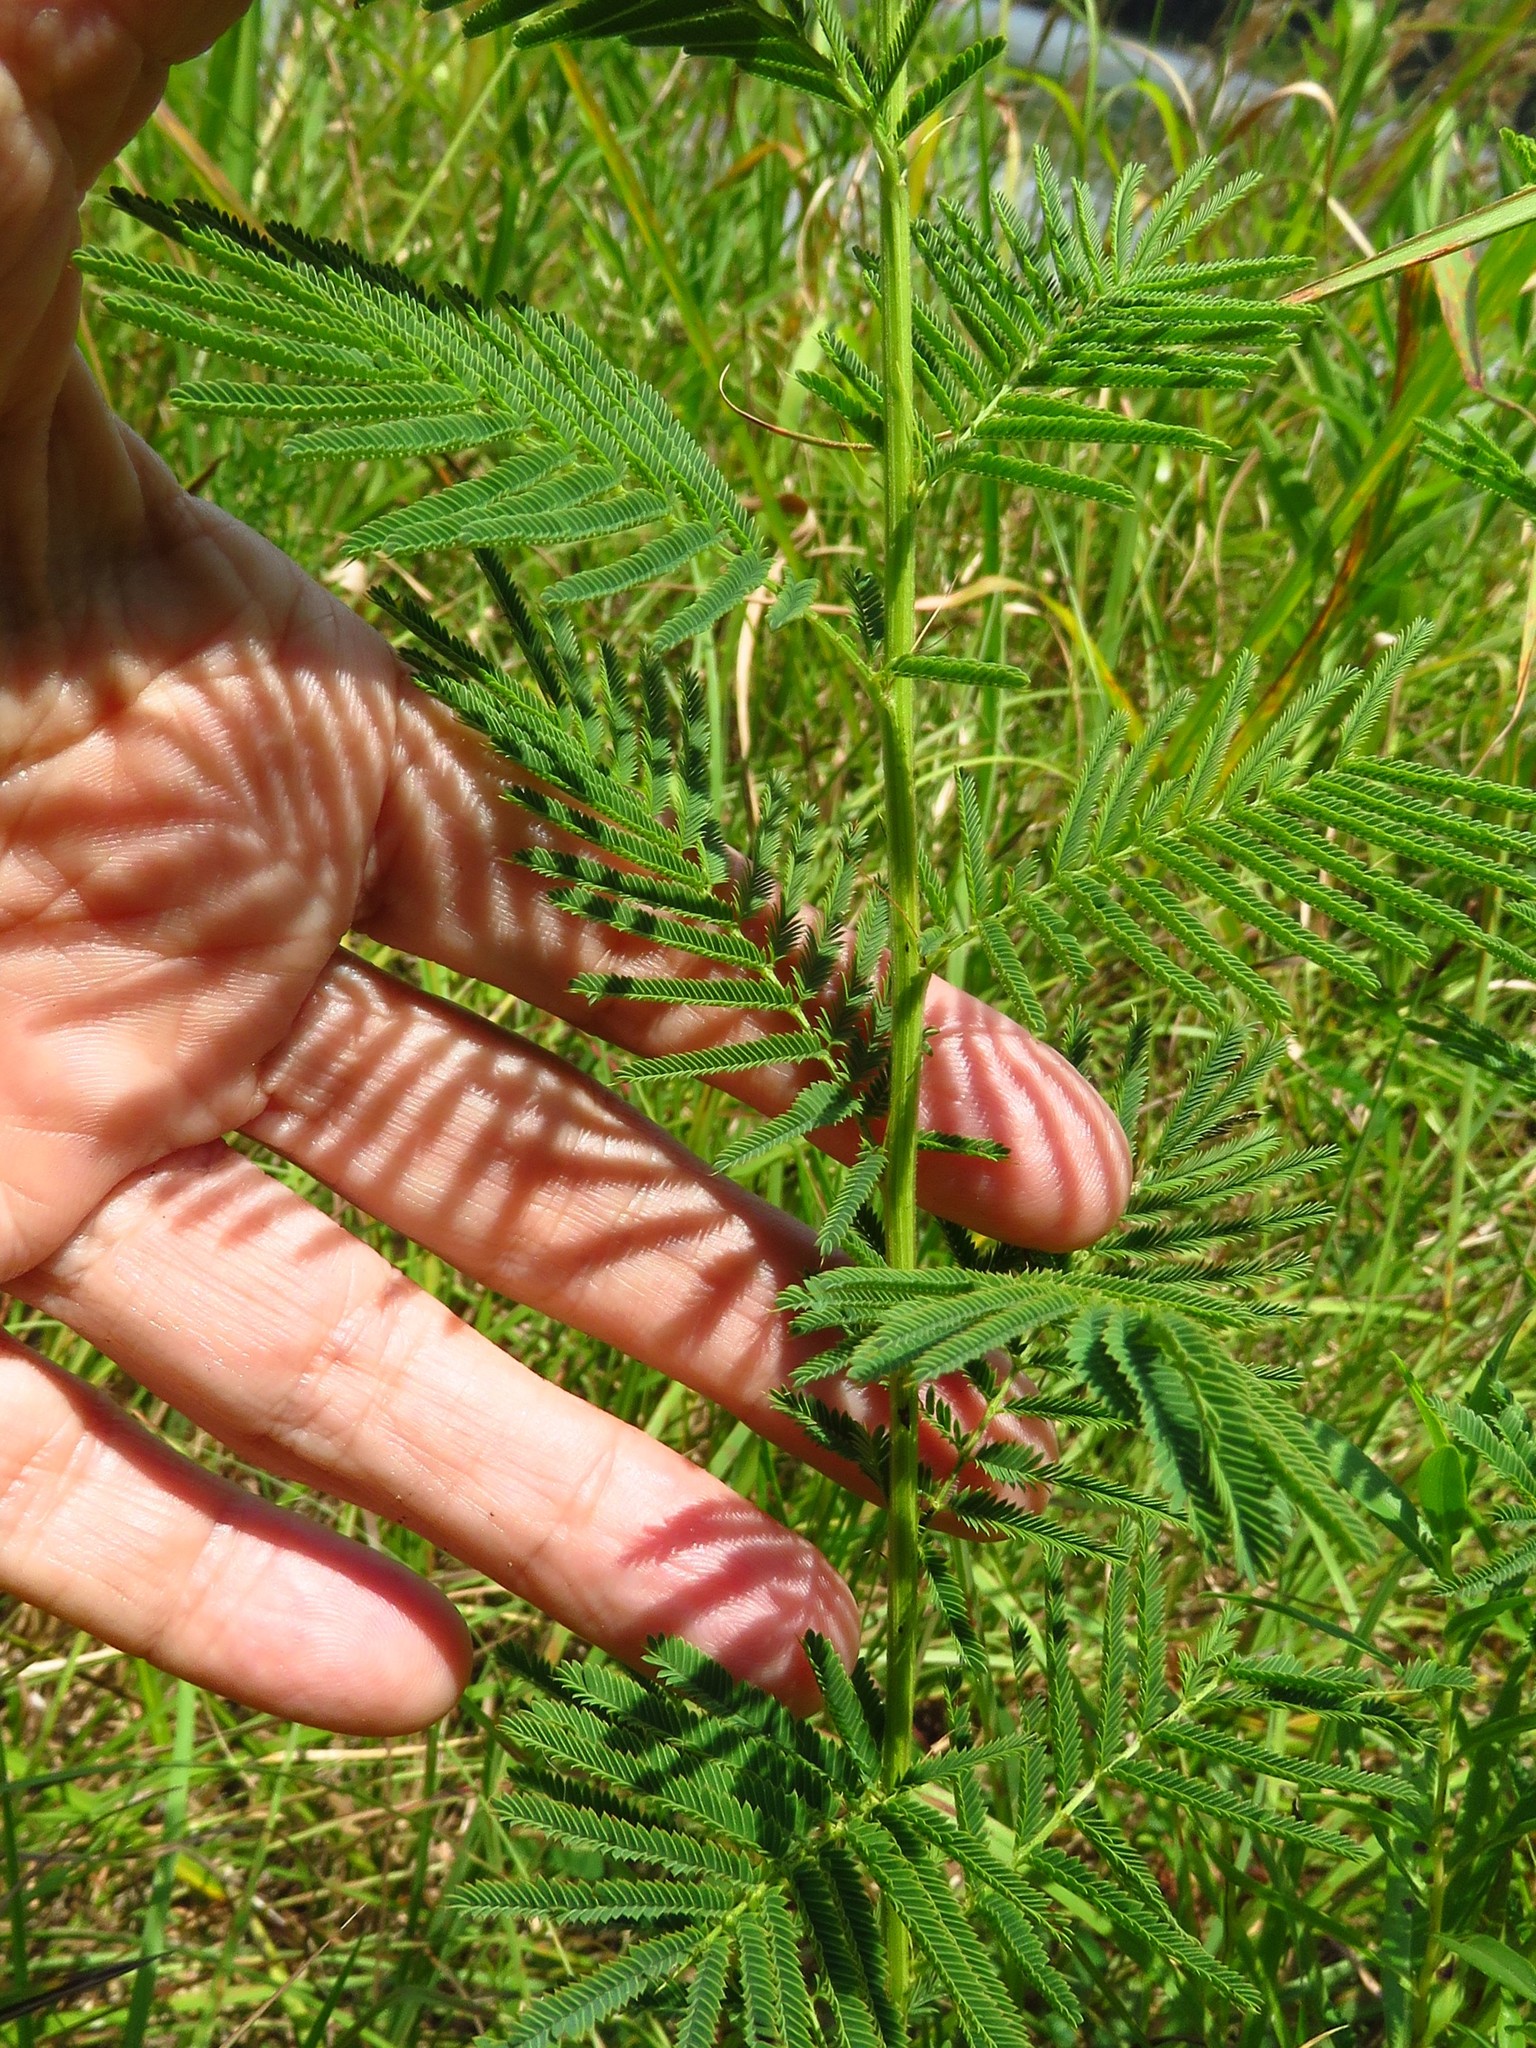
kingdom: Plantae
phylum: Tracheophyta
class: Magnoliopsida
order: Fabales
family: Fabaceae
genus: Neptunia
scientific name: Neptunia lutea
